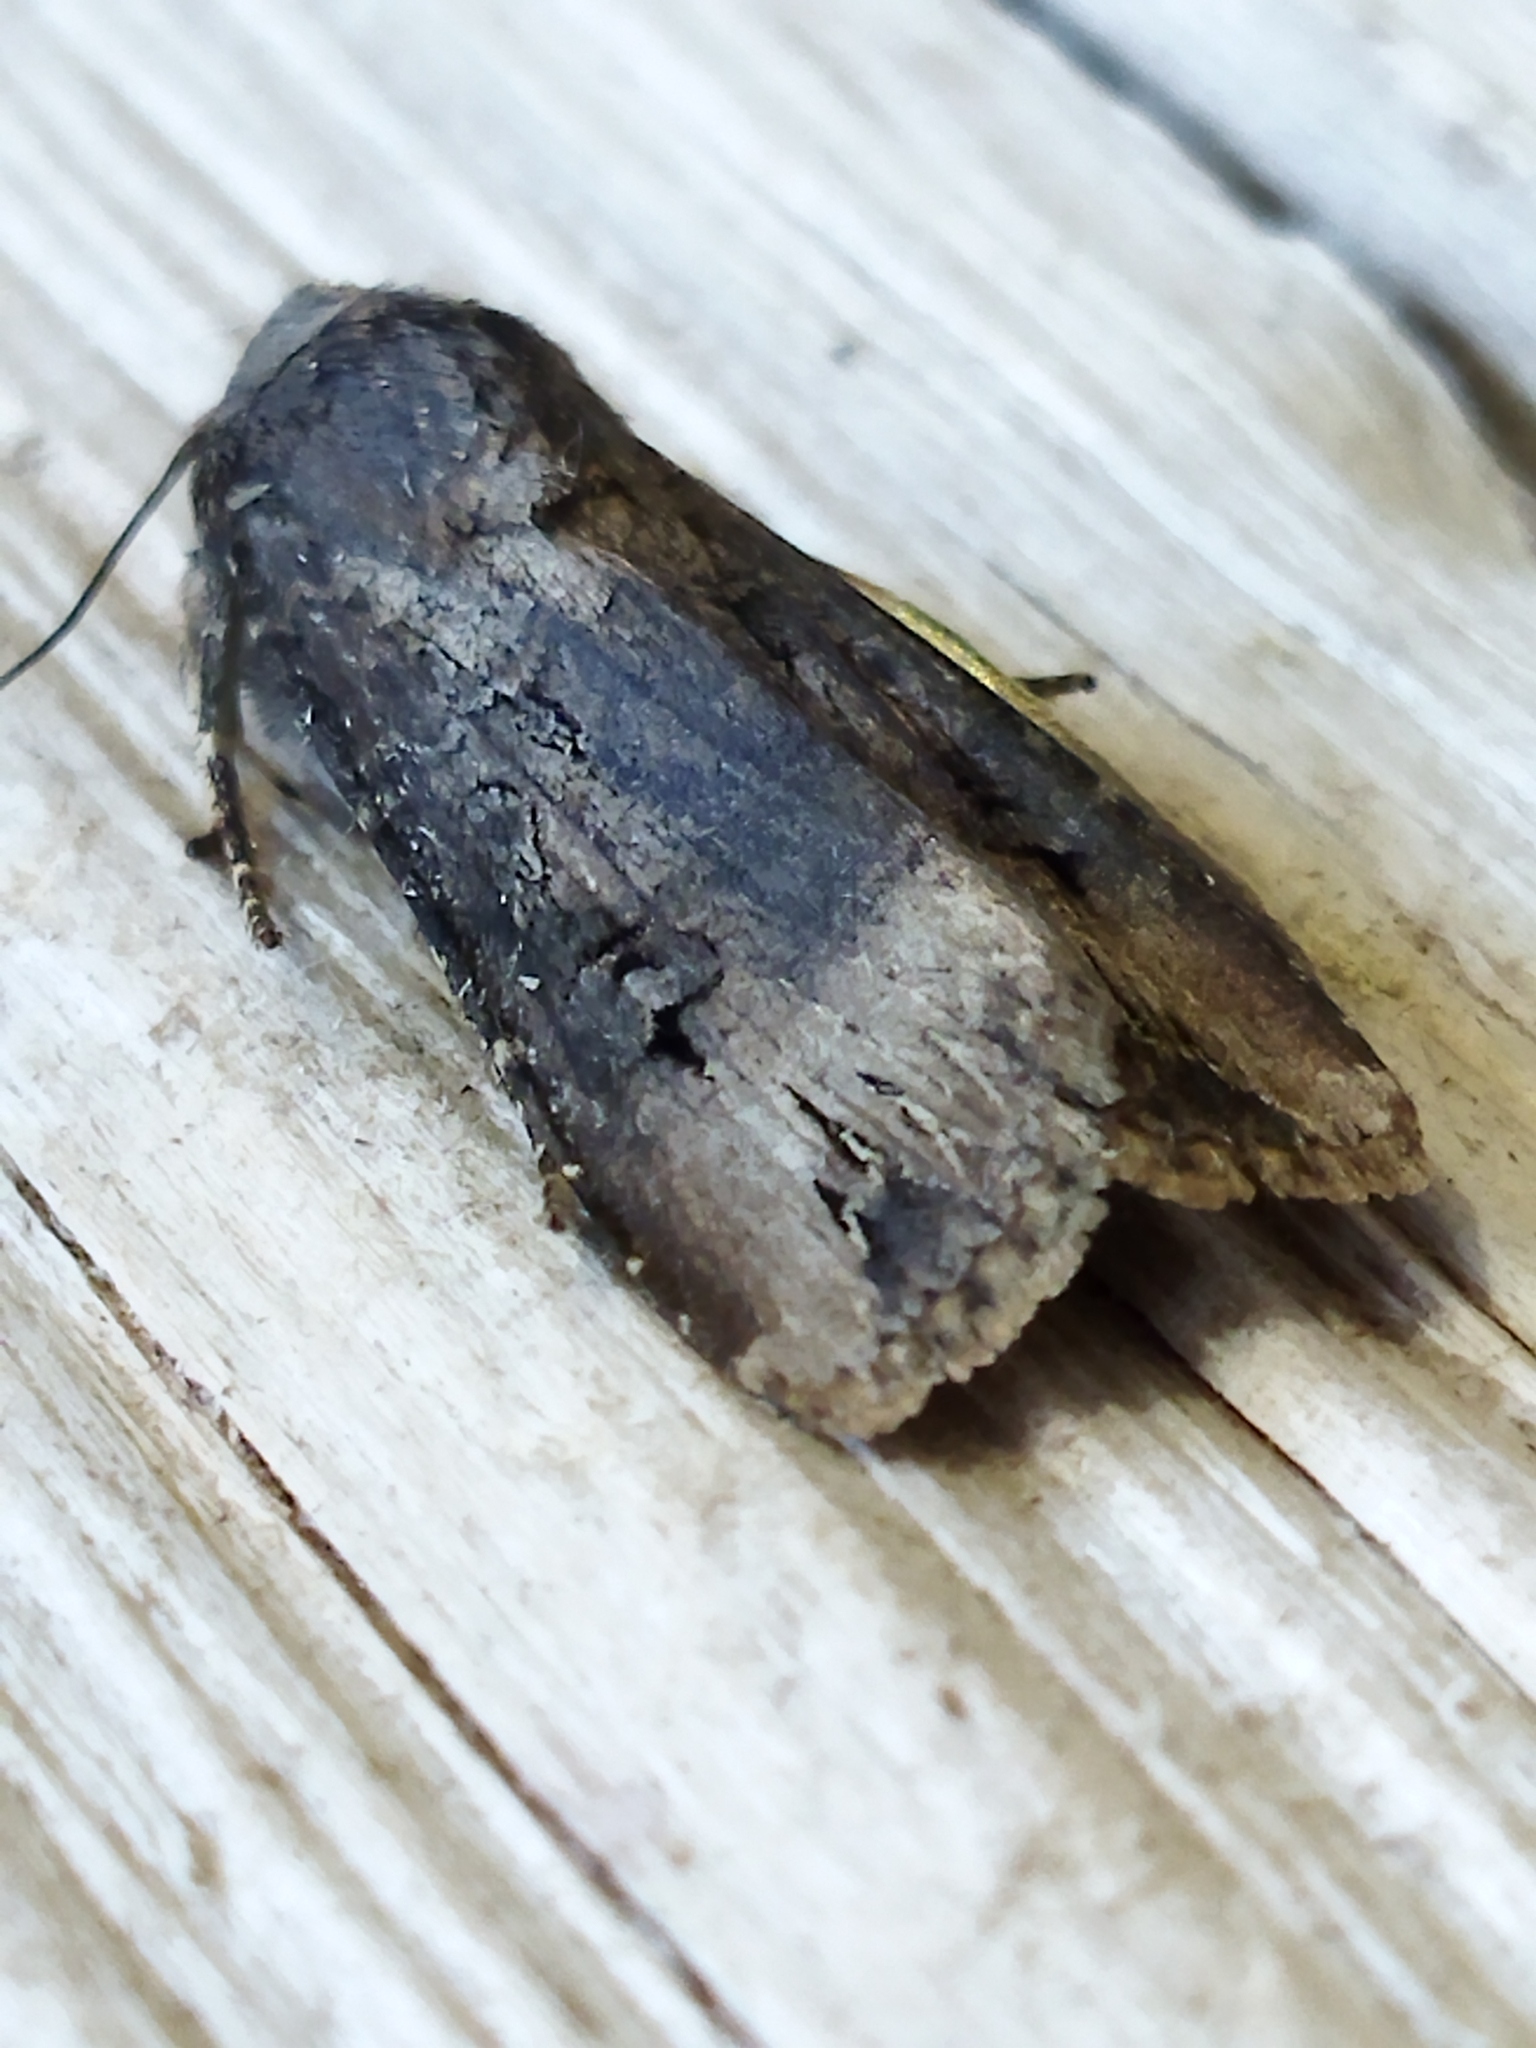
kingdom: Animalia
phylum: Arthropoda
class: Insecta
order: Lepidoptera
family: Noctuidae
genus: Agrotis
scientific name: Agrotis ipsilon
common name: Dark sword-grass
